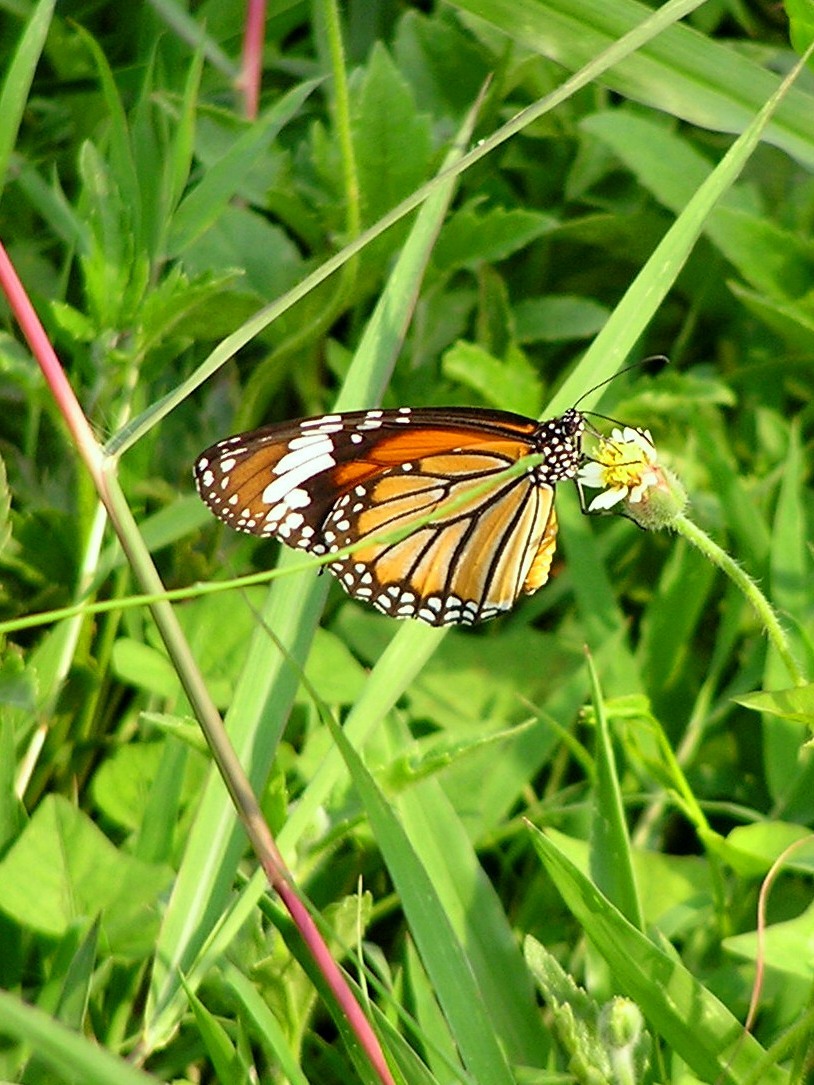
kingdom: Animalia
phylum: Arthropoda
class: Insecta
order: Lepidoptera
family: Nymphalidae
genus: Danaus
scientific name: Danaus genutia
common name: Common tiger butterfly
